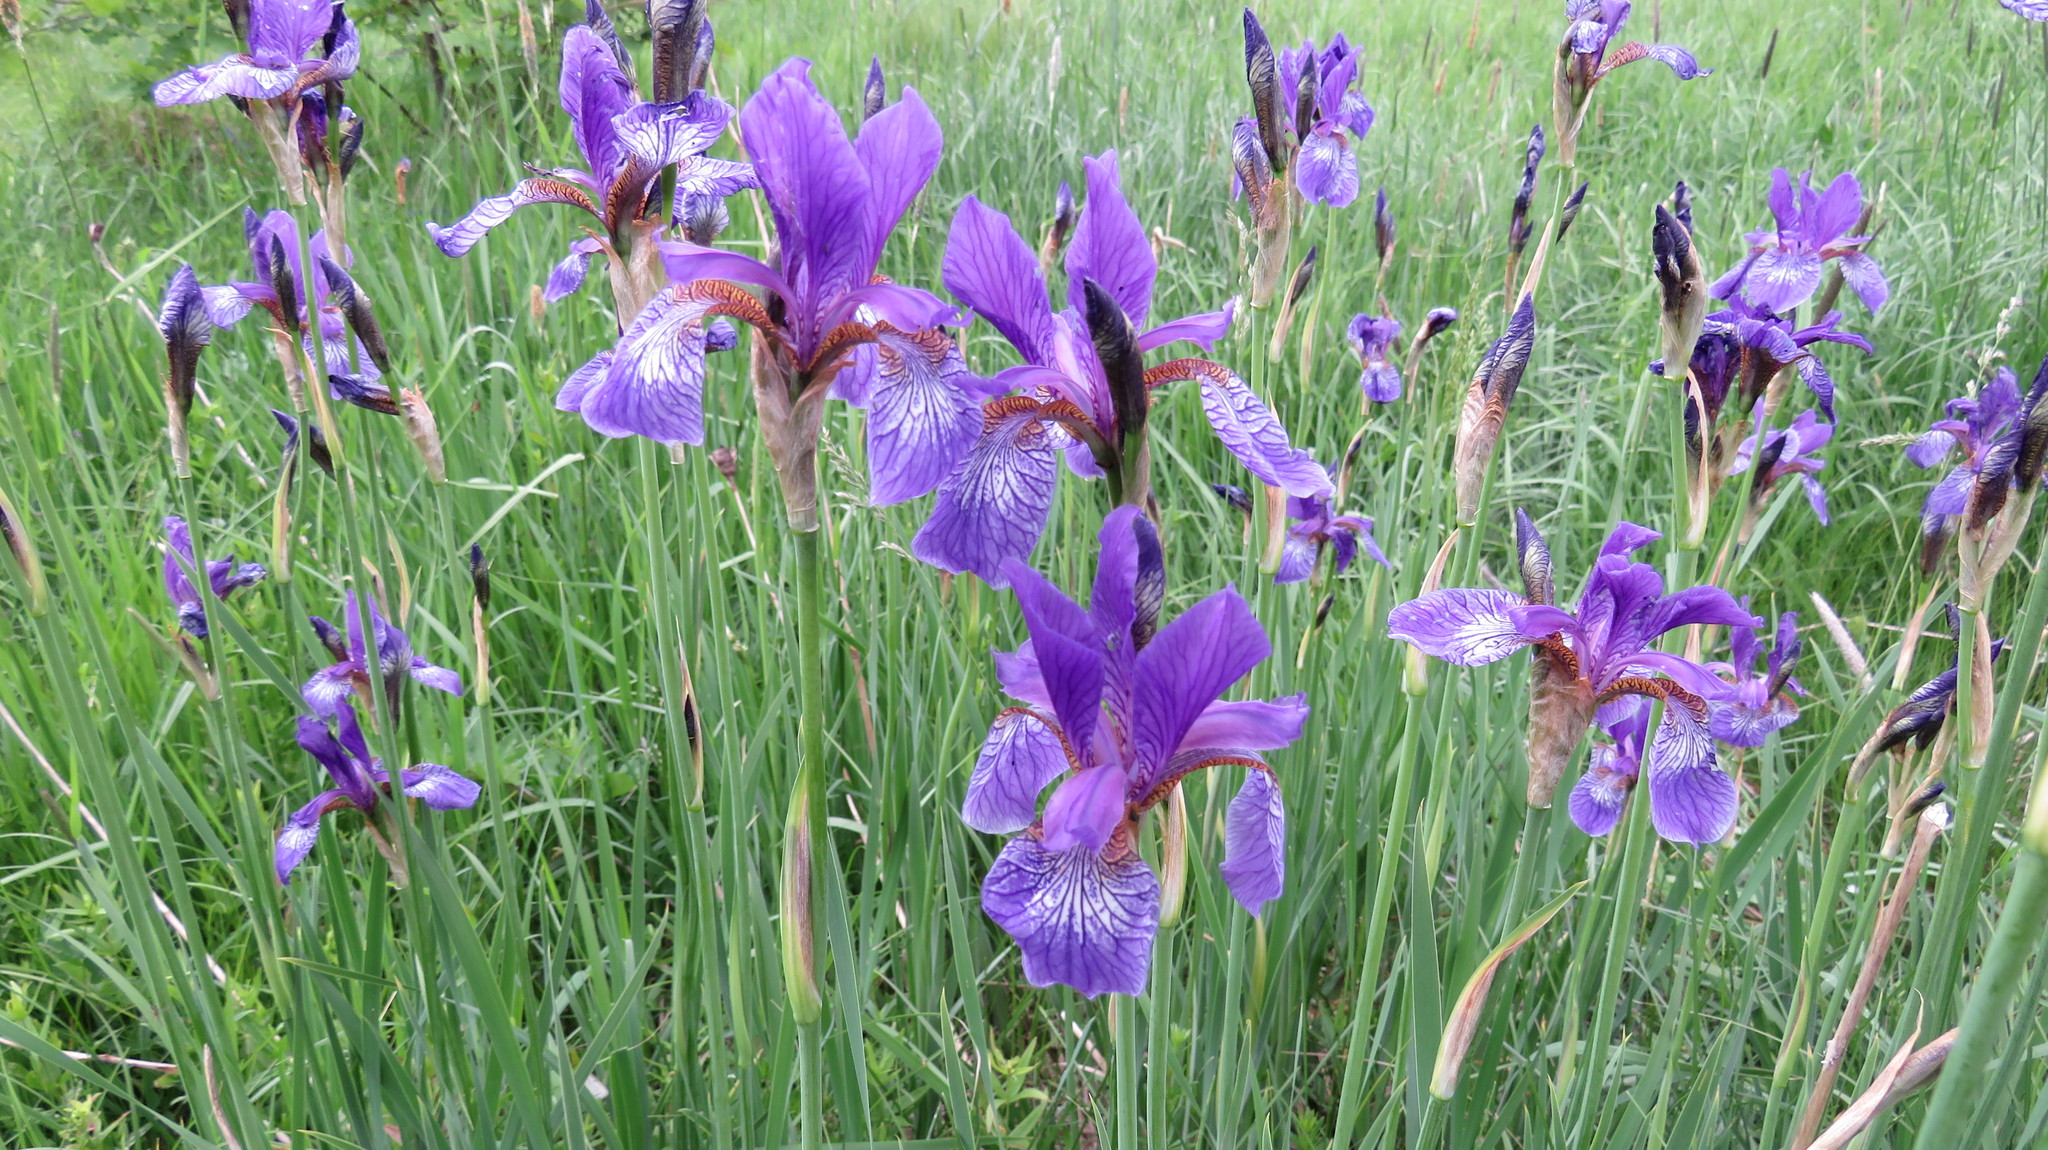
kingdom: Plantae
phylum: Tracheophyta
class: Liliopsida
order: Asparagales
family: Iridaceae
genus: Iris
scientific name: Iris sibirica
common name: Siberian iris
